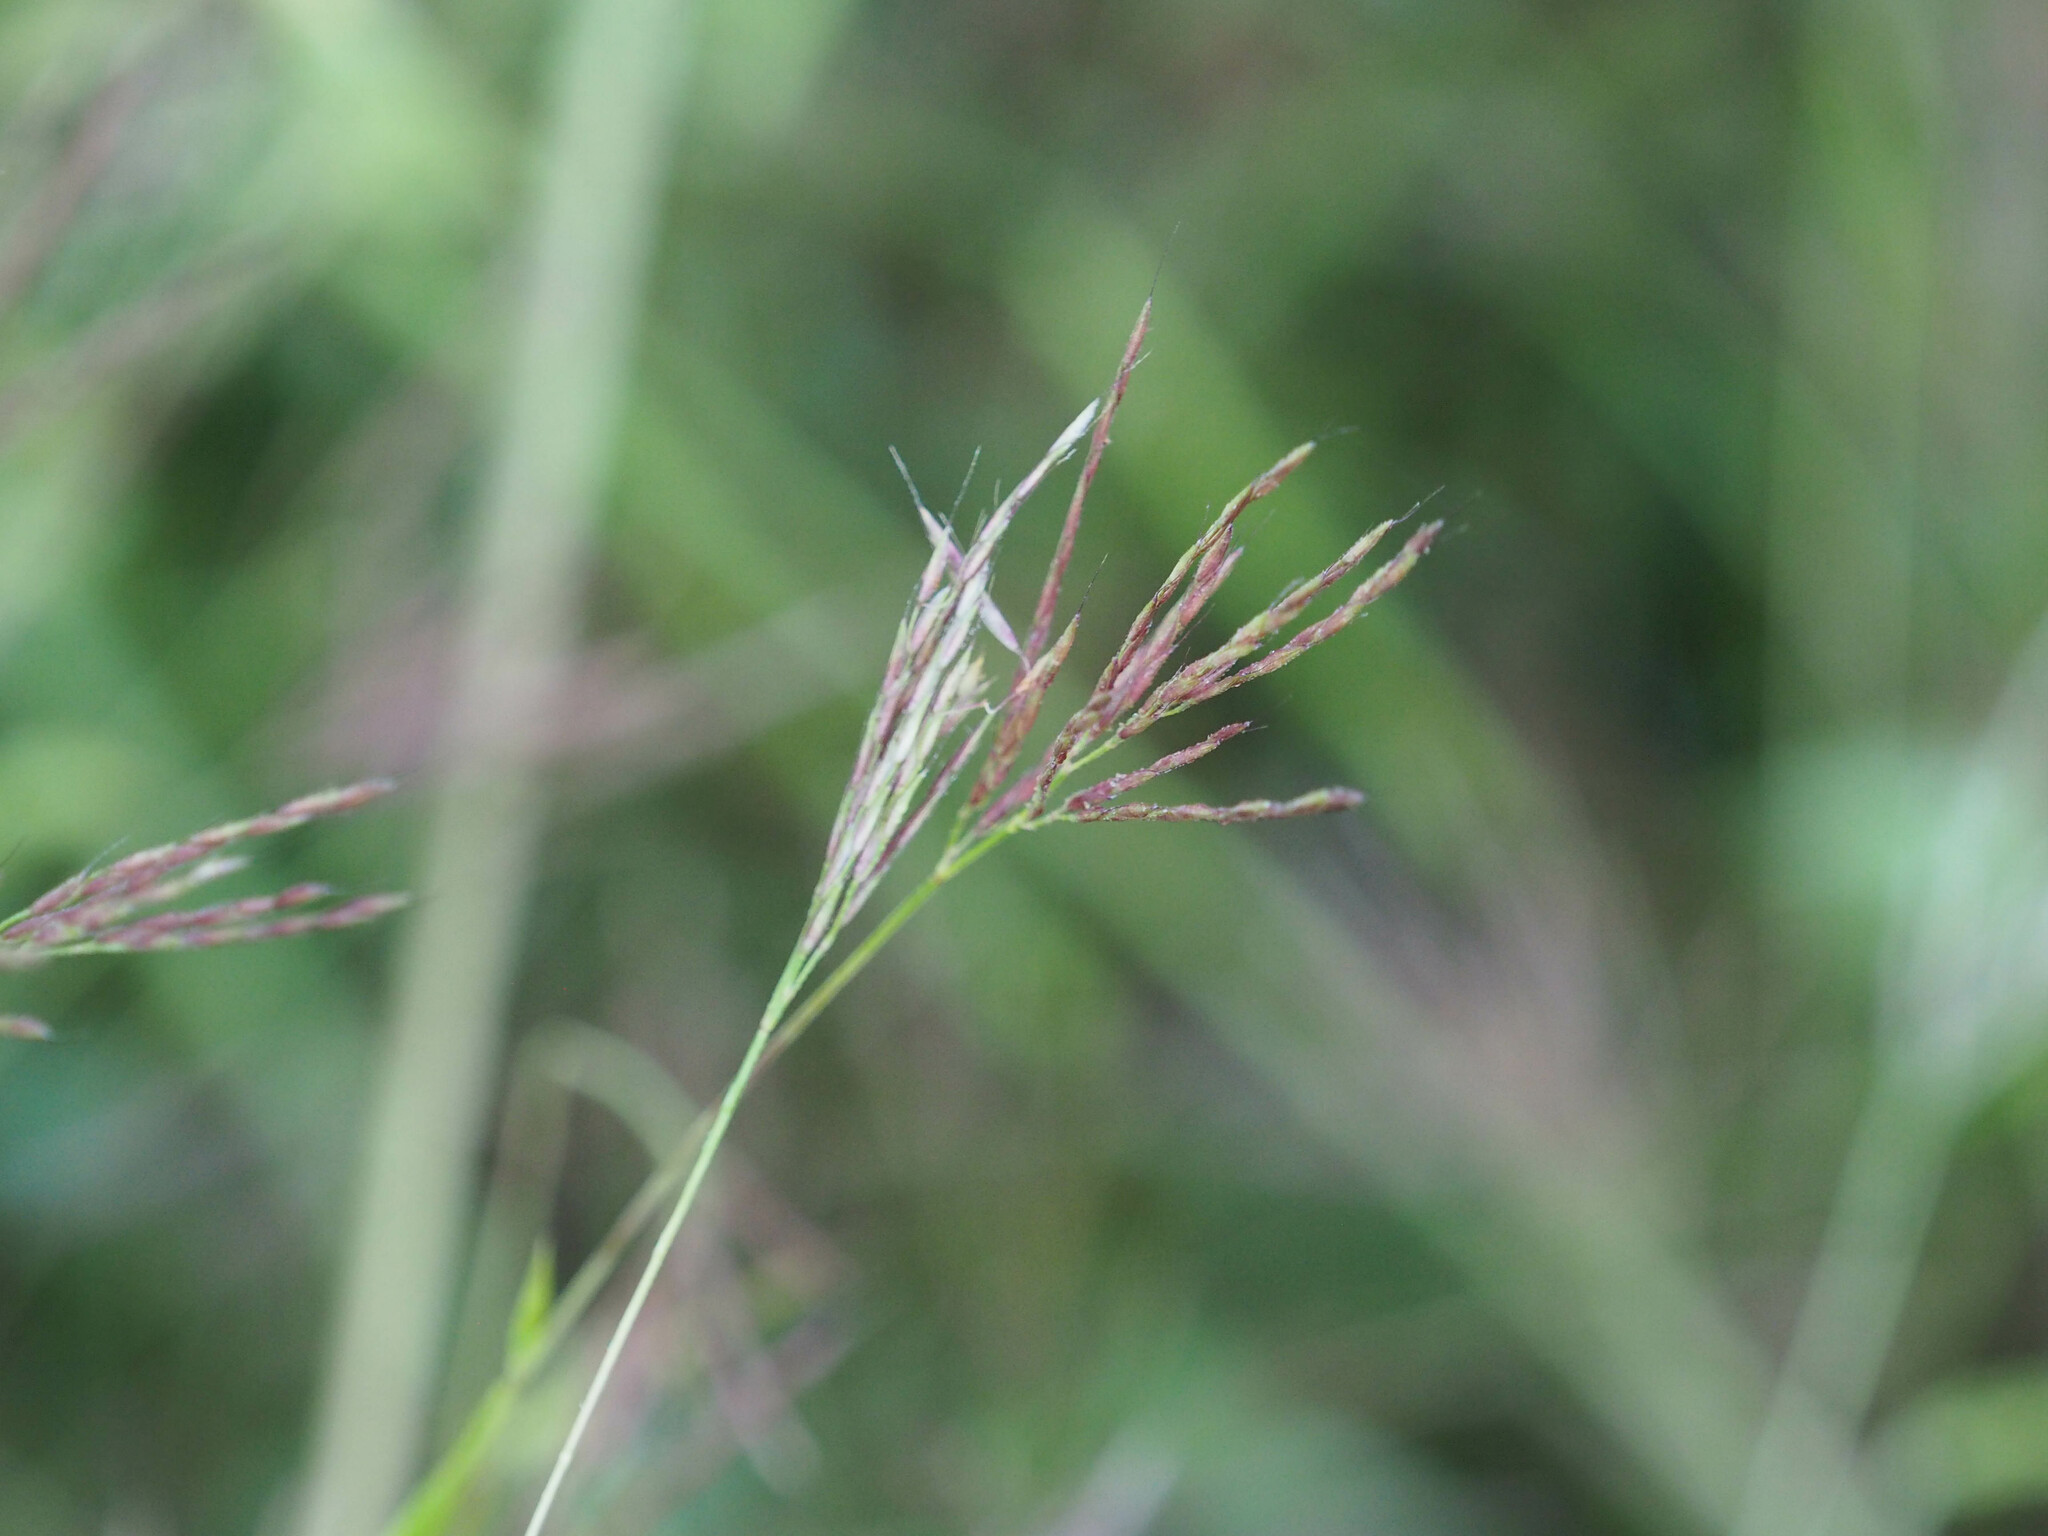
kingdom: Plantae
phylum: Tracheophyta
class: Liliopsida
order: Poales
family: Poaceae
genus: Arthraxon
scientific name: Arthraxon hispidus
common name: Small carpgrass
